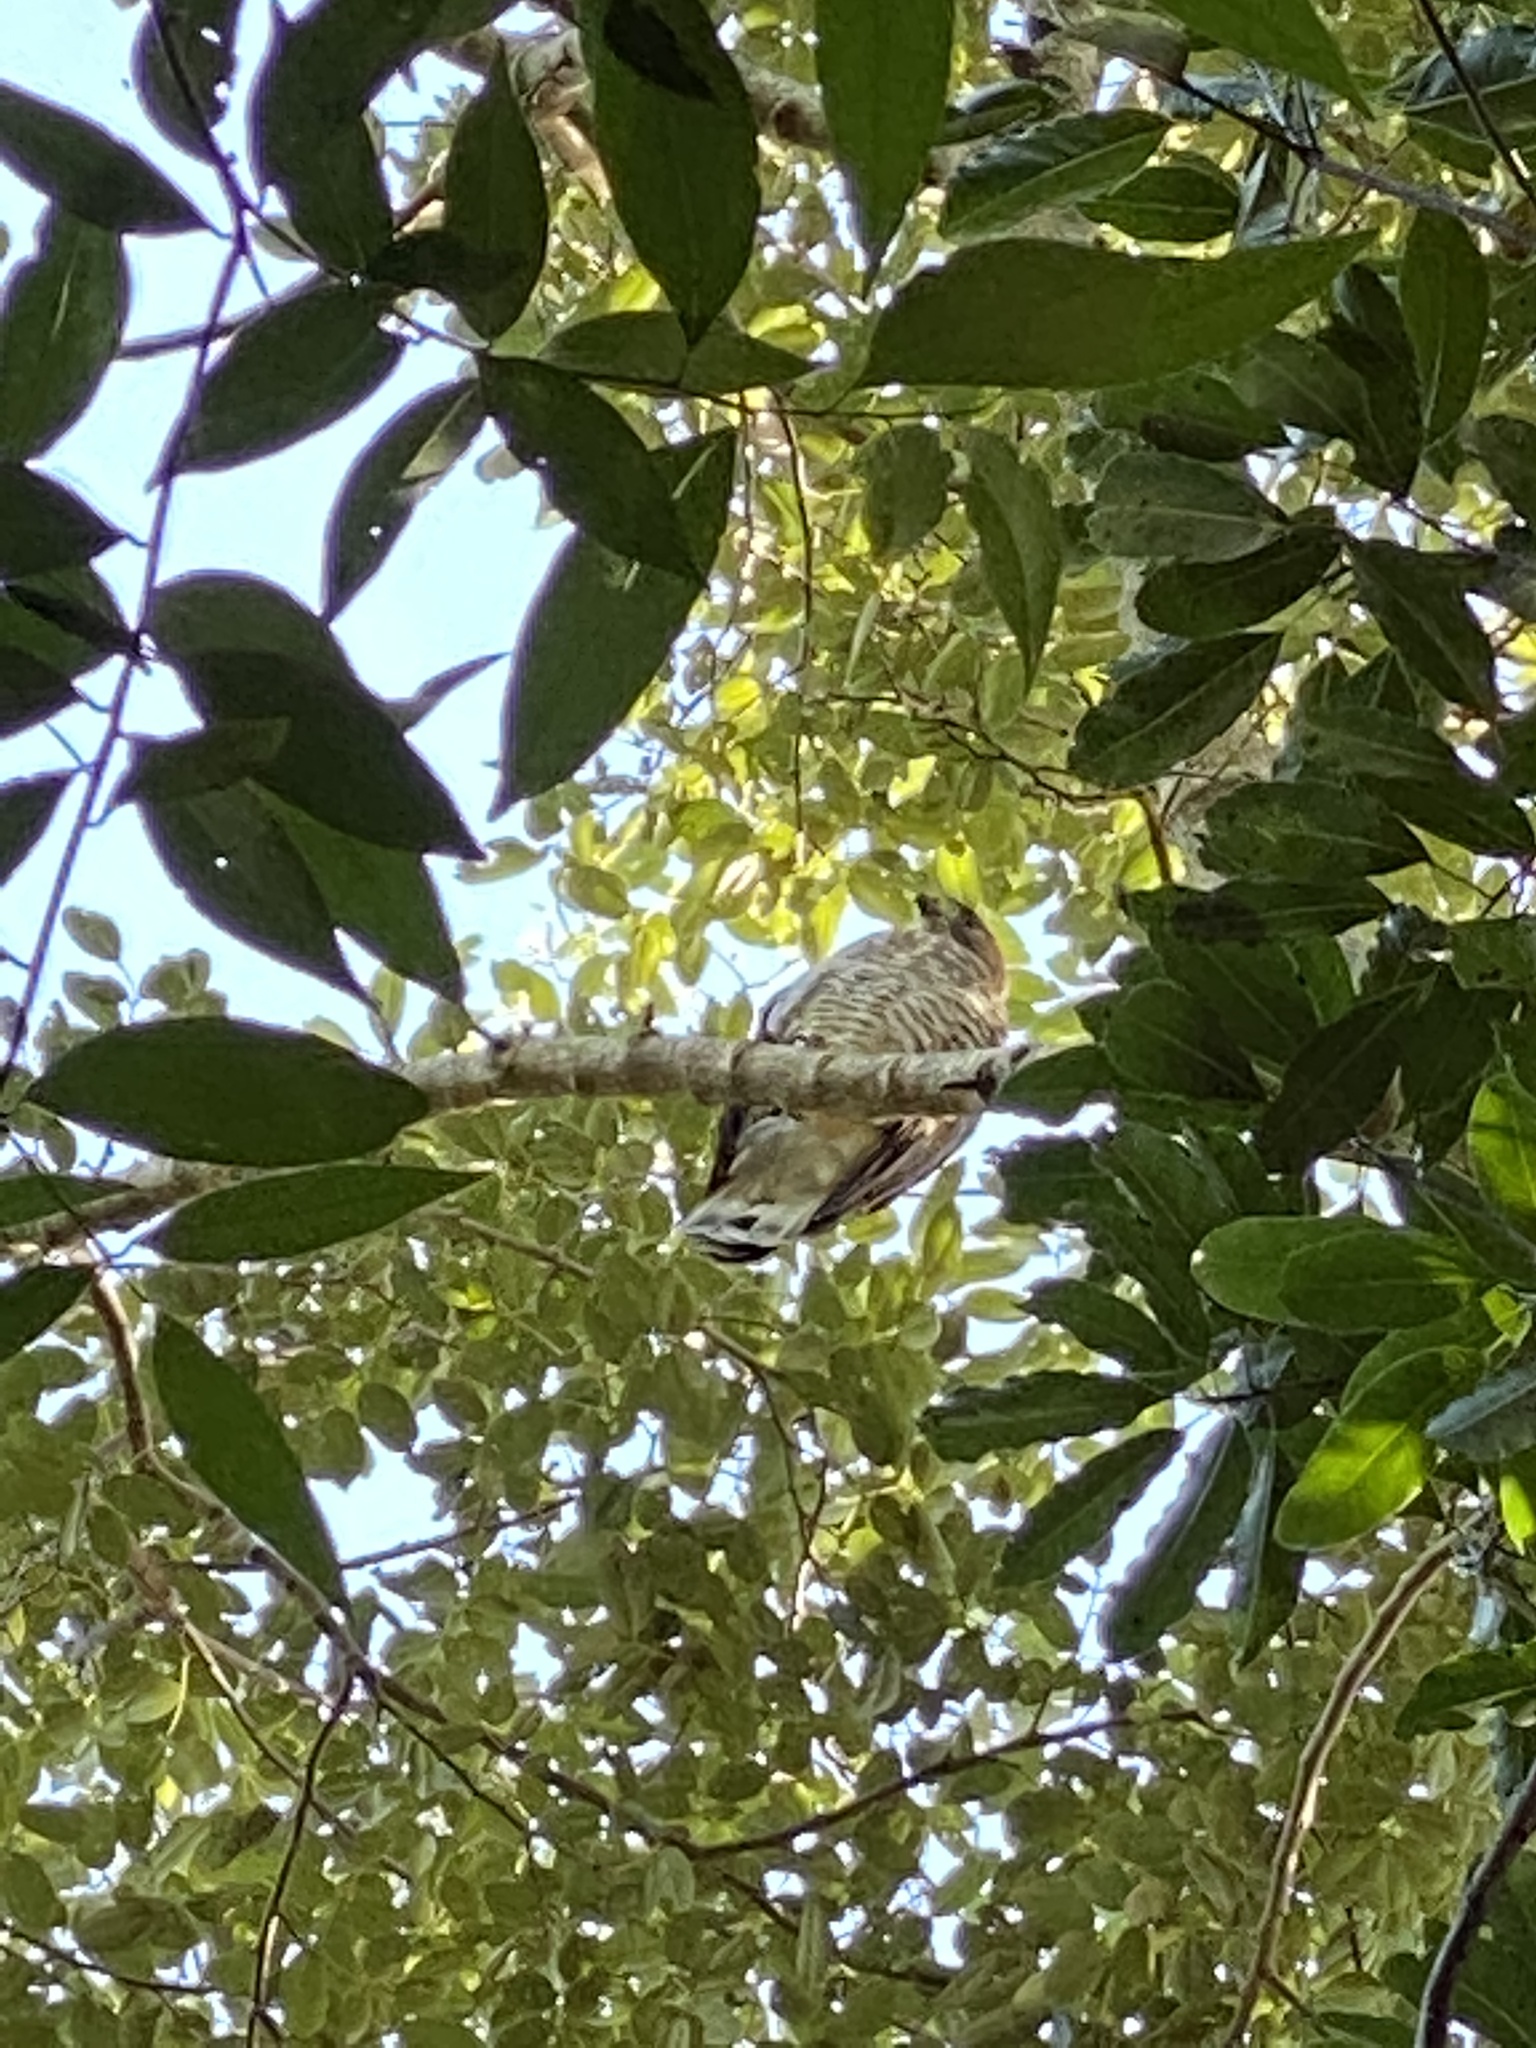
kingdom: Animalia
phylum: Chordata
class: Aves
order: Accipitriformes
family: Accipitridae
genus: Buteo
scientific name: Buteo platypterus
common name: Broad-winged hawk
